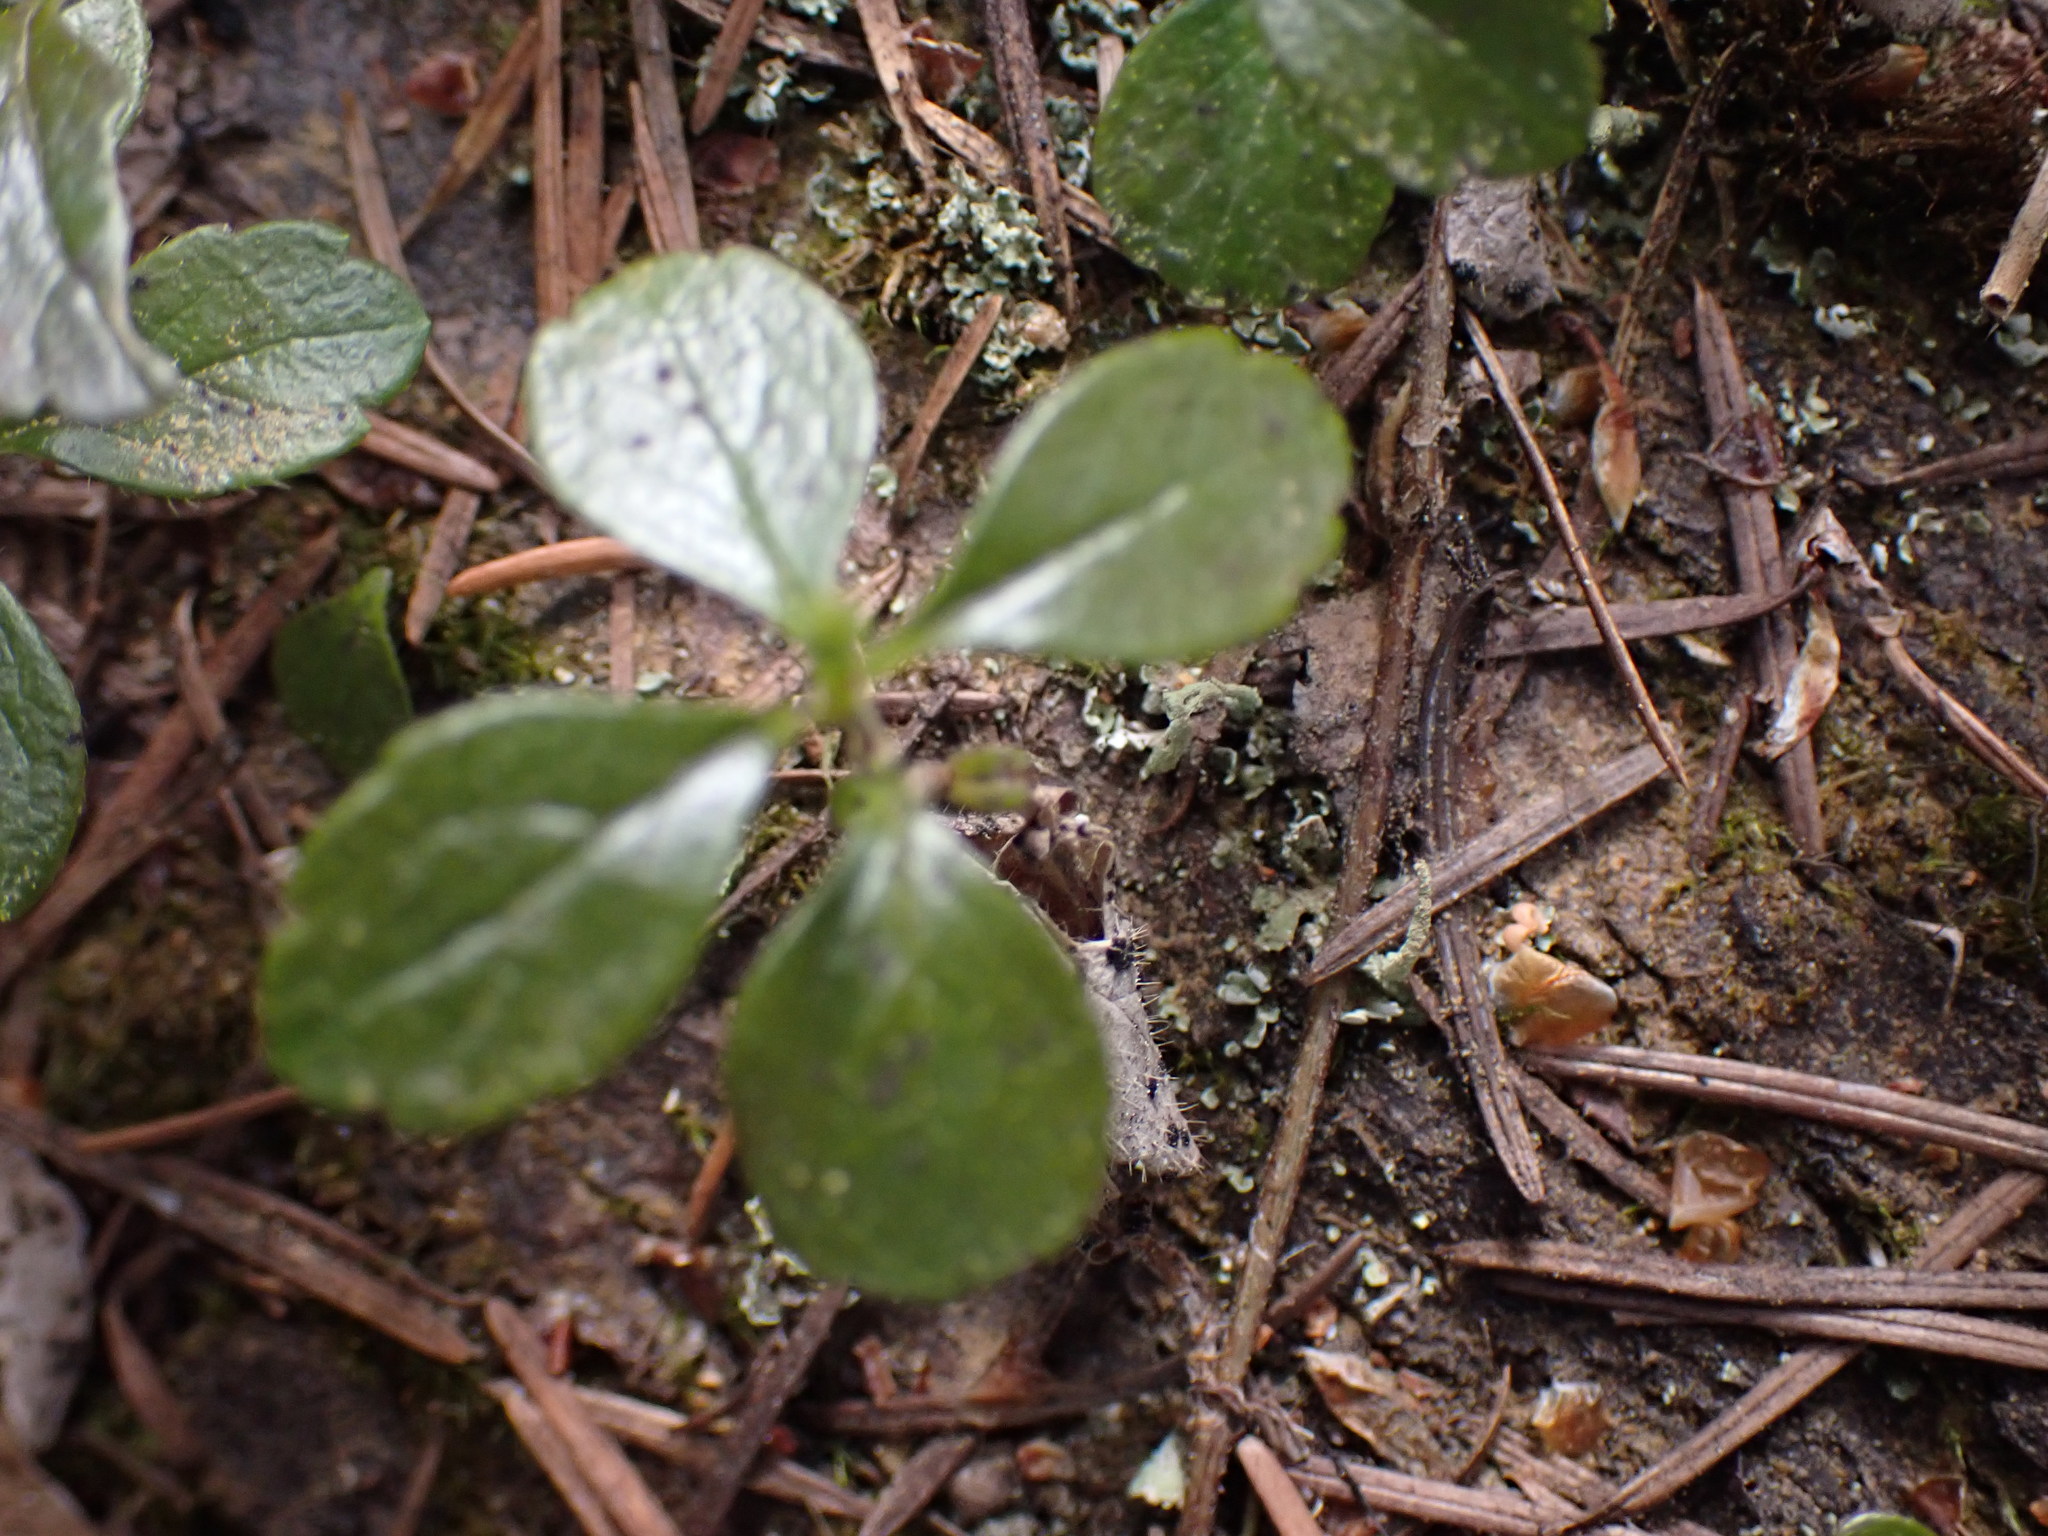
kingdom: Plantae
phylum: Tracheophyta
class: Magnoliopsida
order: Dipsacales
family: Caprifoliaceae
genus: Linnaea
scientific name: Linnaea borealis
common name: Twinflower
